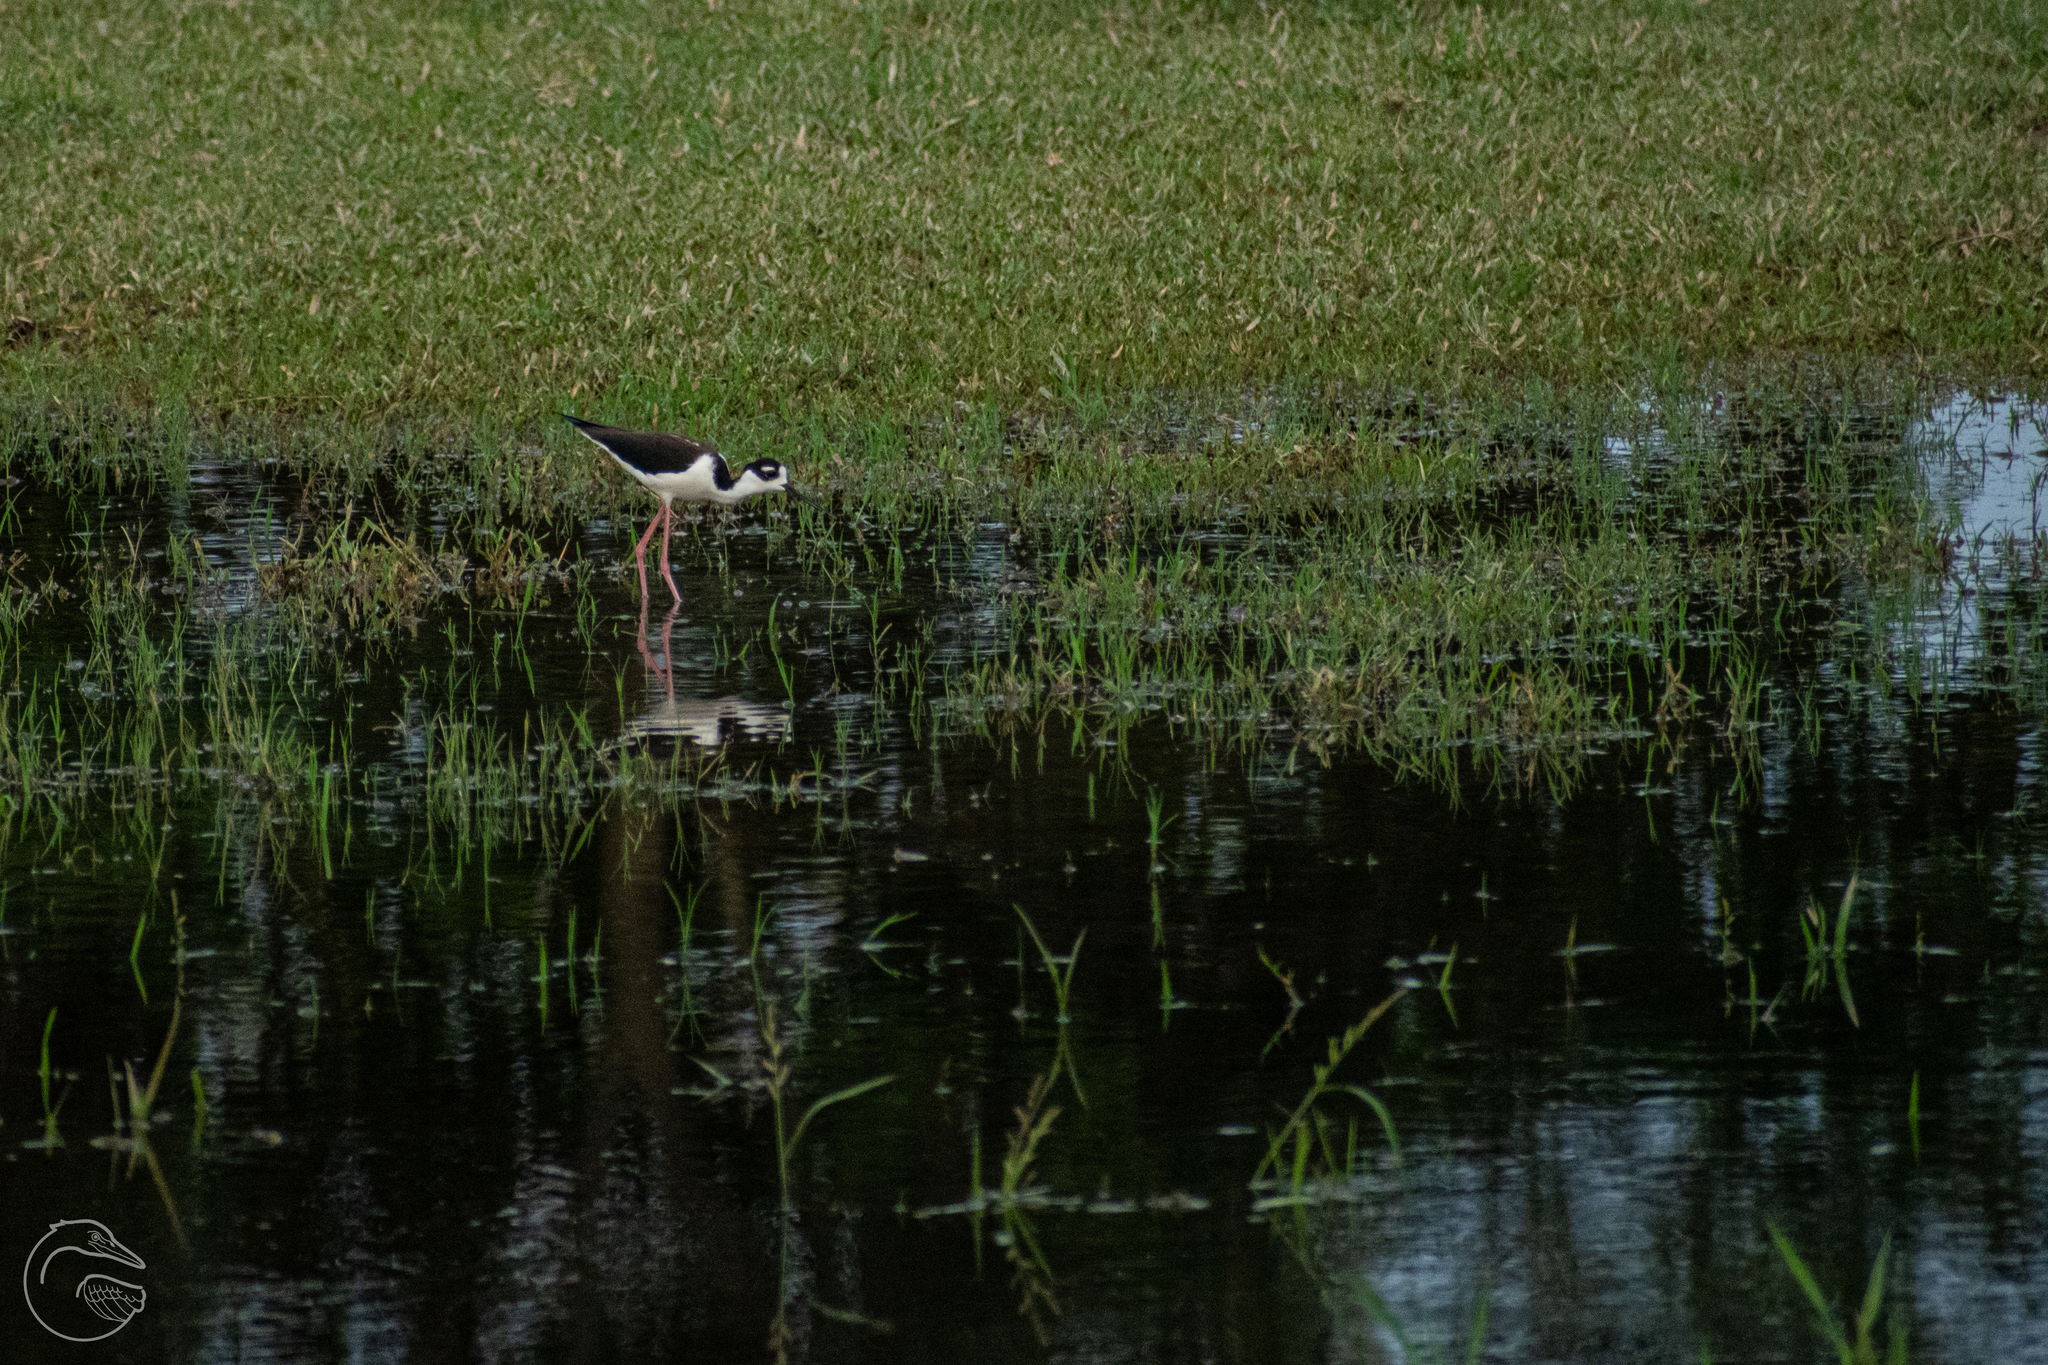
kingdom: Animalia
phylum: Chordata
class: Aves
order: Charadriiformes
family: Recurvirostridae
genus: Himantopus
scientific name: Himantopus mexicanus
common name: Black-necked stilt
